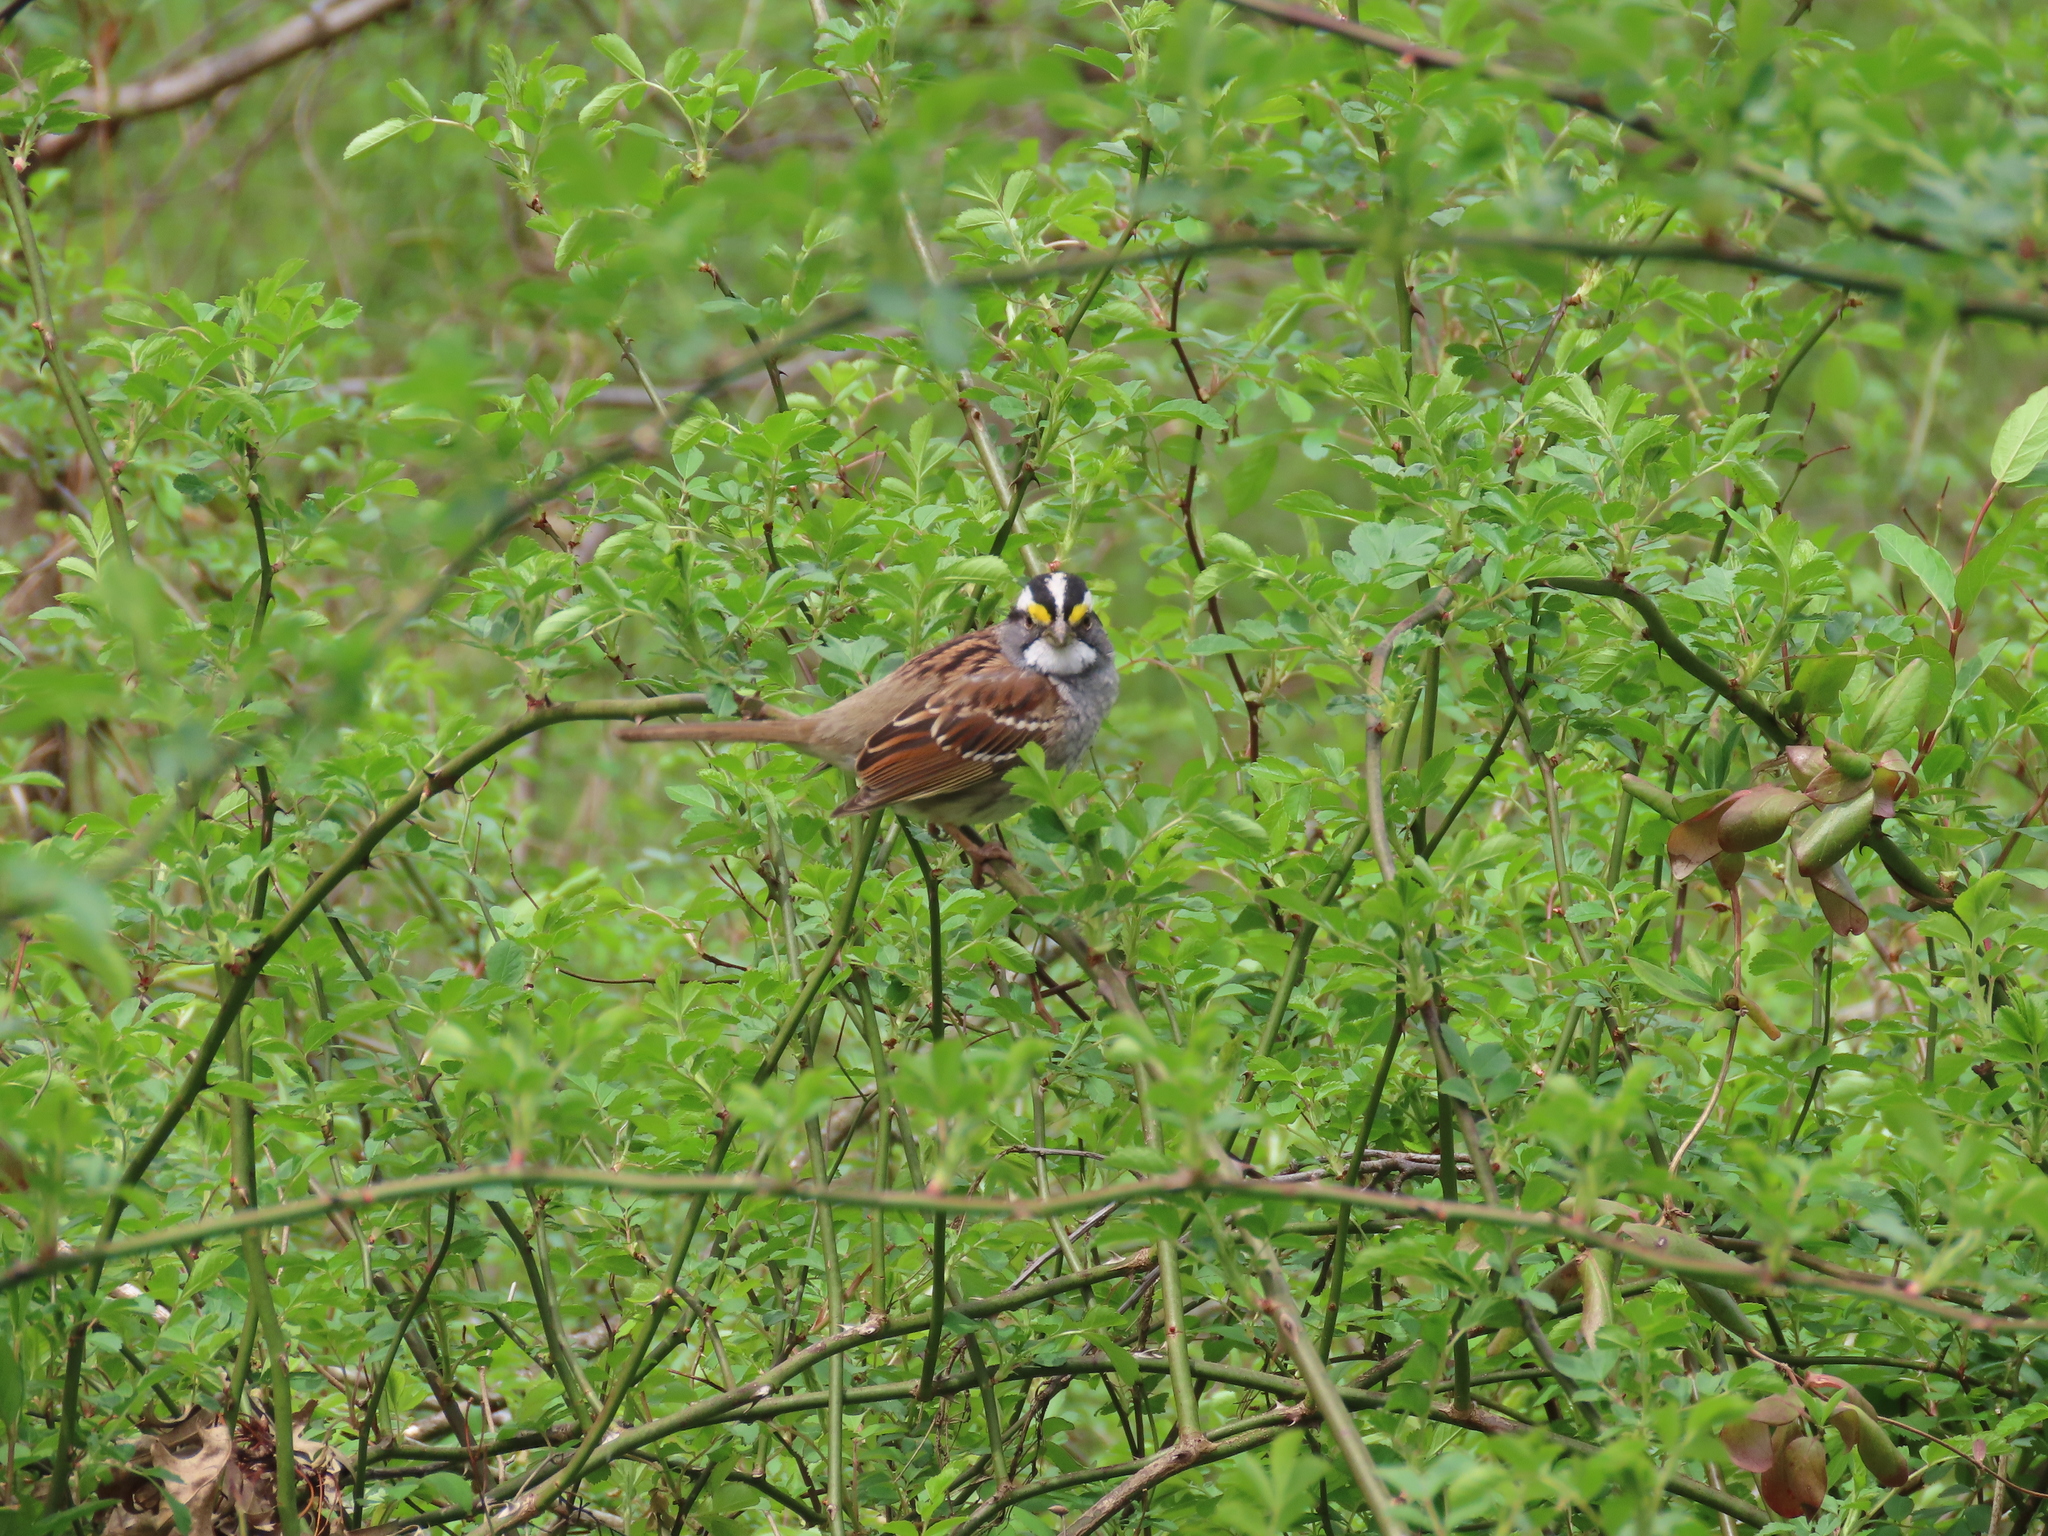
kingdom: Animalia
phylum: Chordata
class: Aves
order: Passeriformes
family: Passerellidae
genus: Zonotrichia
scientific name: Zonotrichia albicollis
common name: White-throated sparrow
